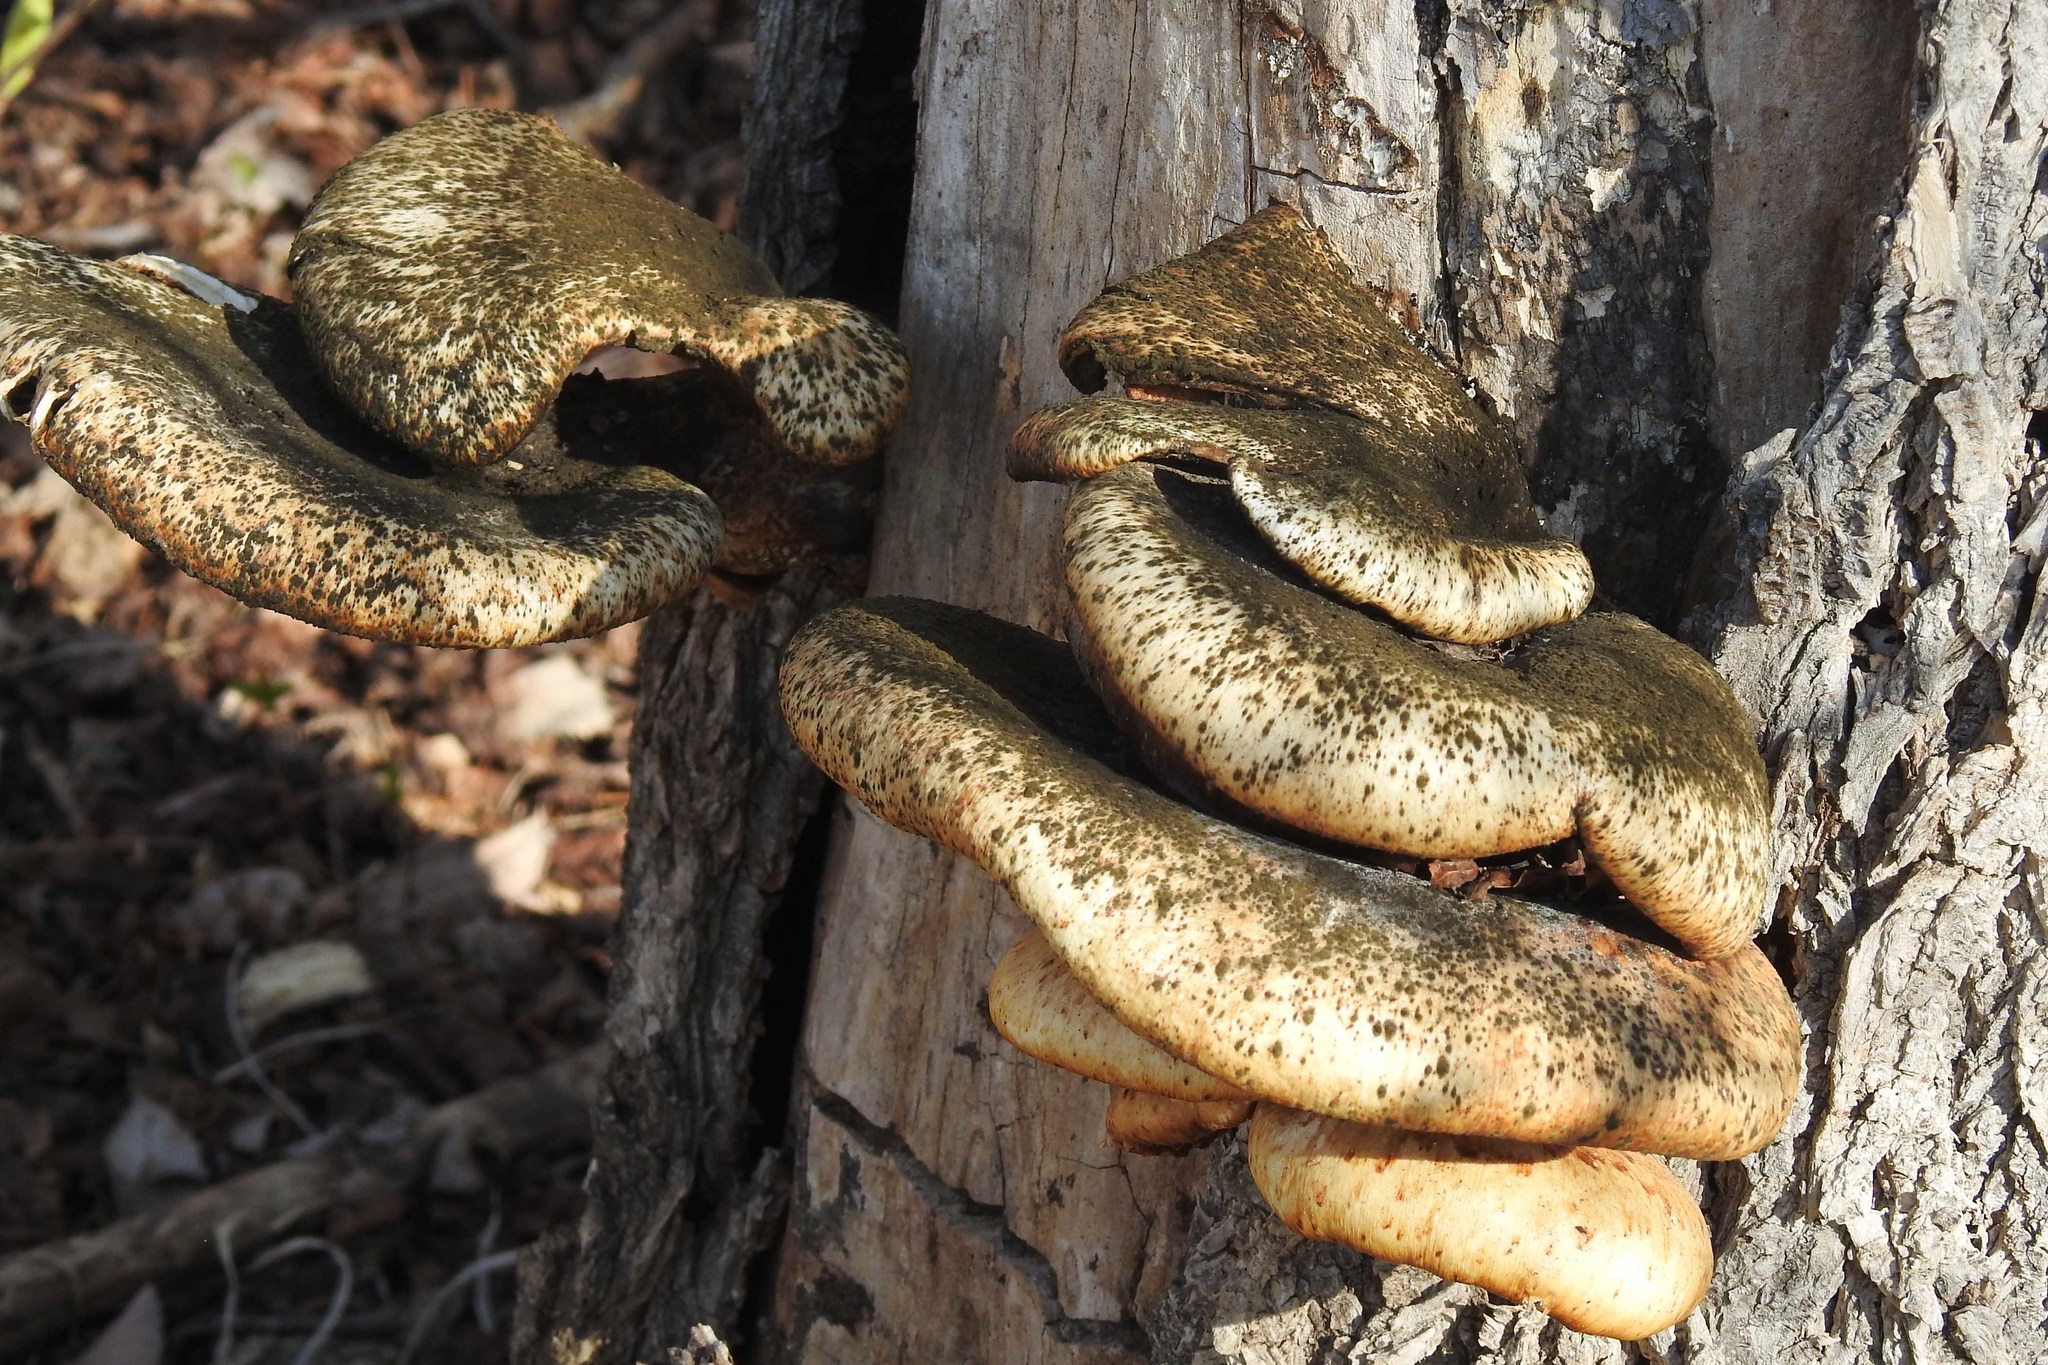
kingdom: Fungi
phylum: Basidiomycota
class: Agaricomycetes
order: Polyporales
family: Polyporaceae
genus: Cerioporus
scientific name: Cerioporus squamosus
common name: Dryad's saddle
